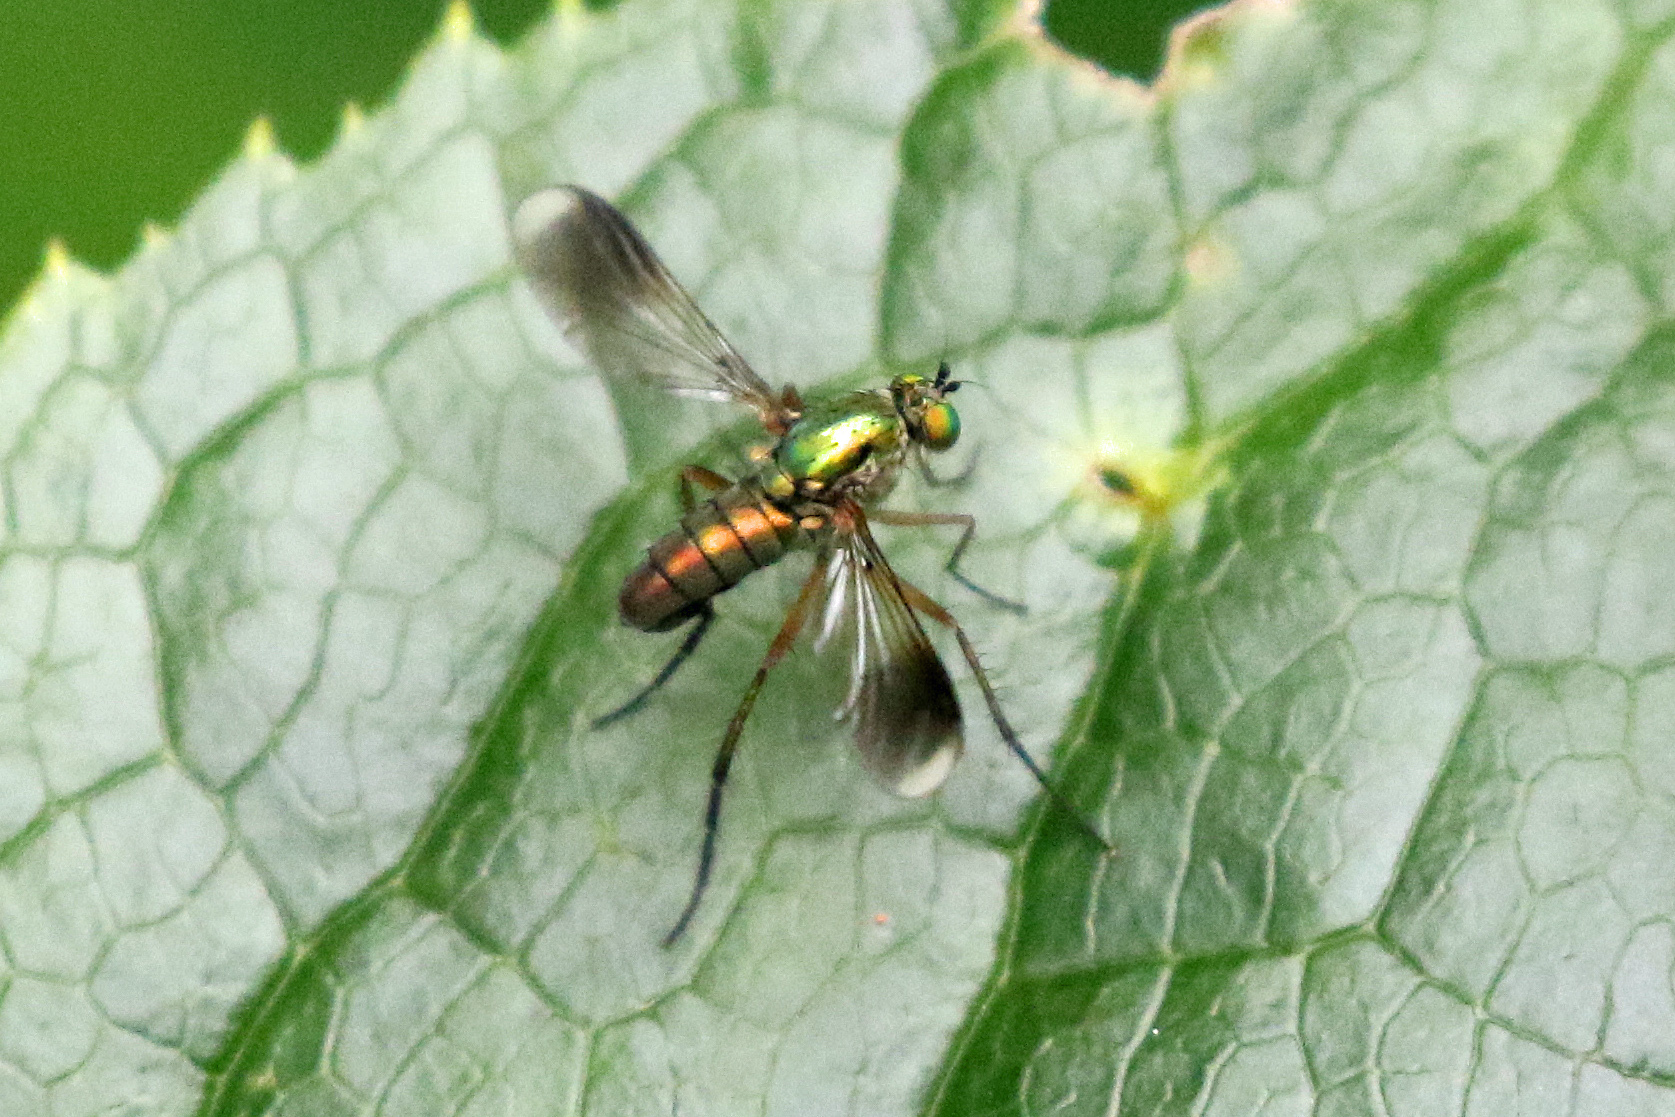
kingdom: Animalia
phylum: Arthropoda
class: Insecta
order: Diptera
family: Dolichopodidae
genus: Poecilobothrus
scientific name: Poecilobothrus nobilitatus
